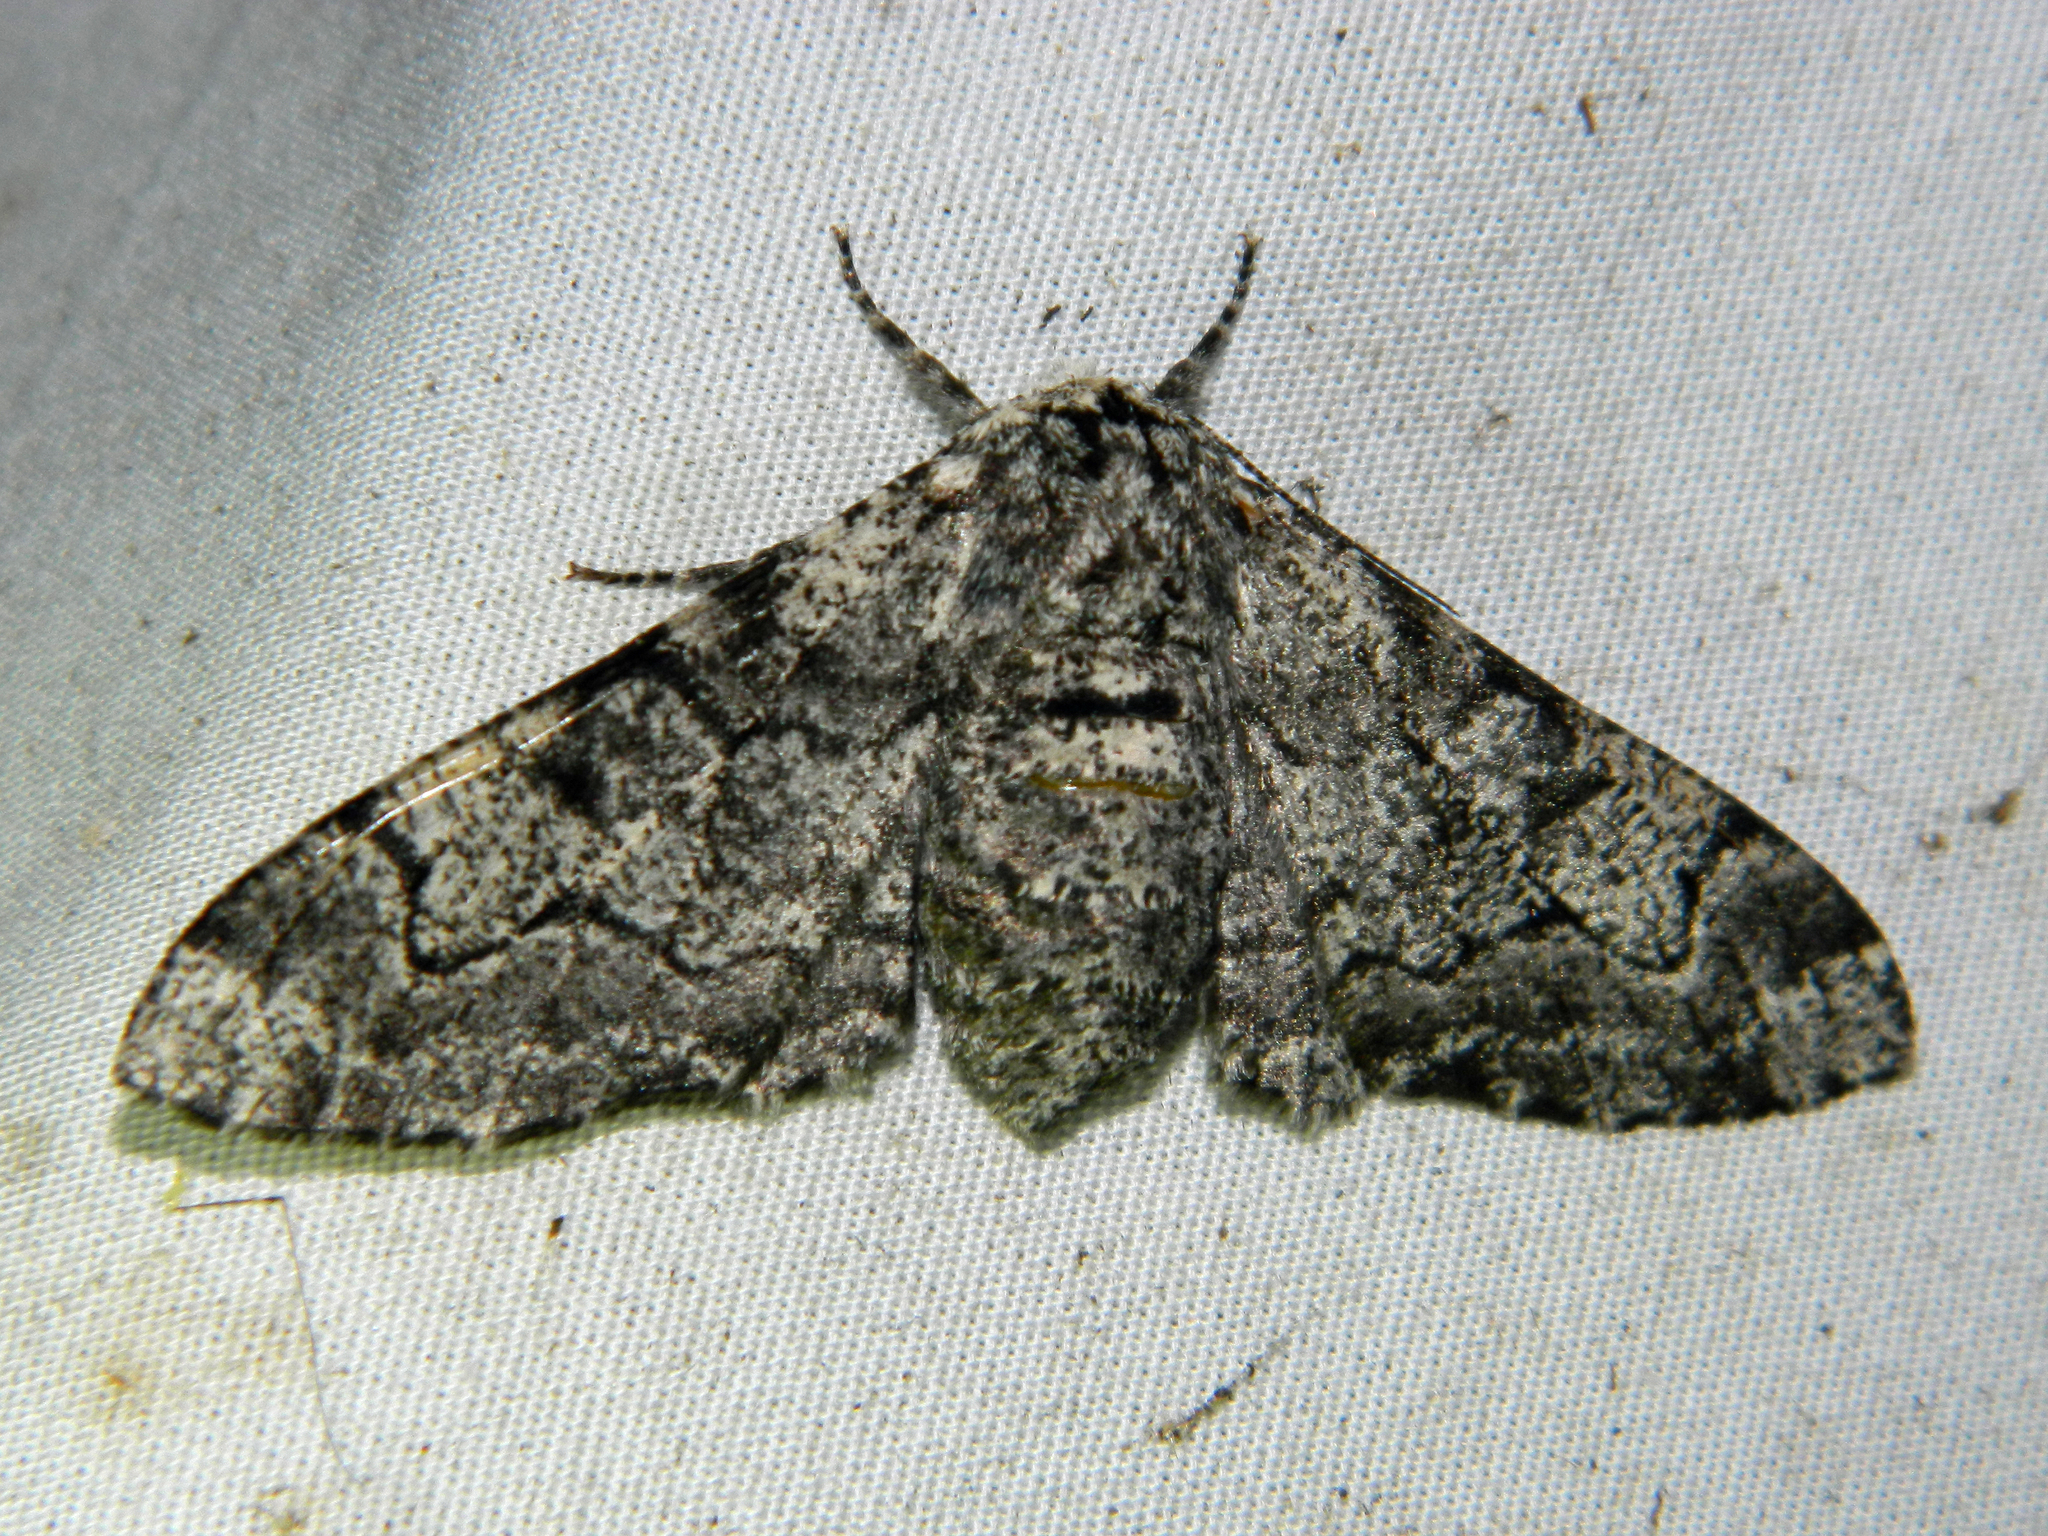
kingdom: Animalia
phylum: Arthropoda
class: Insecta
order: Lepidoptera
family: Geometridae
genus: Biston
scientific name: Biston betularia
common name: Peppered moth
